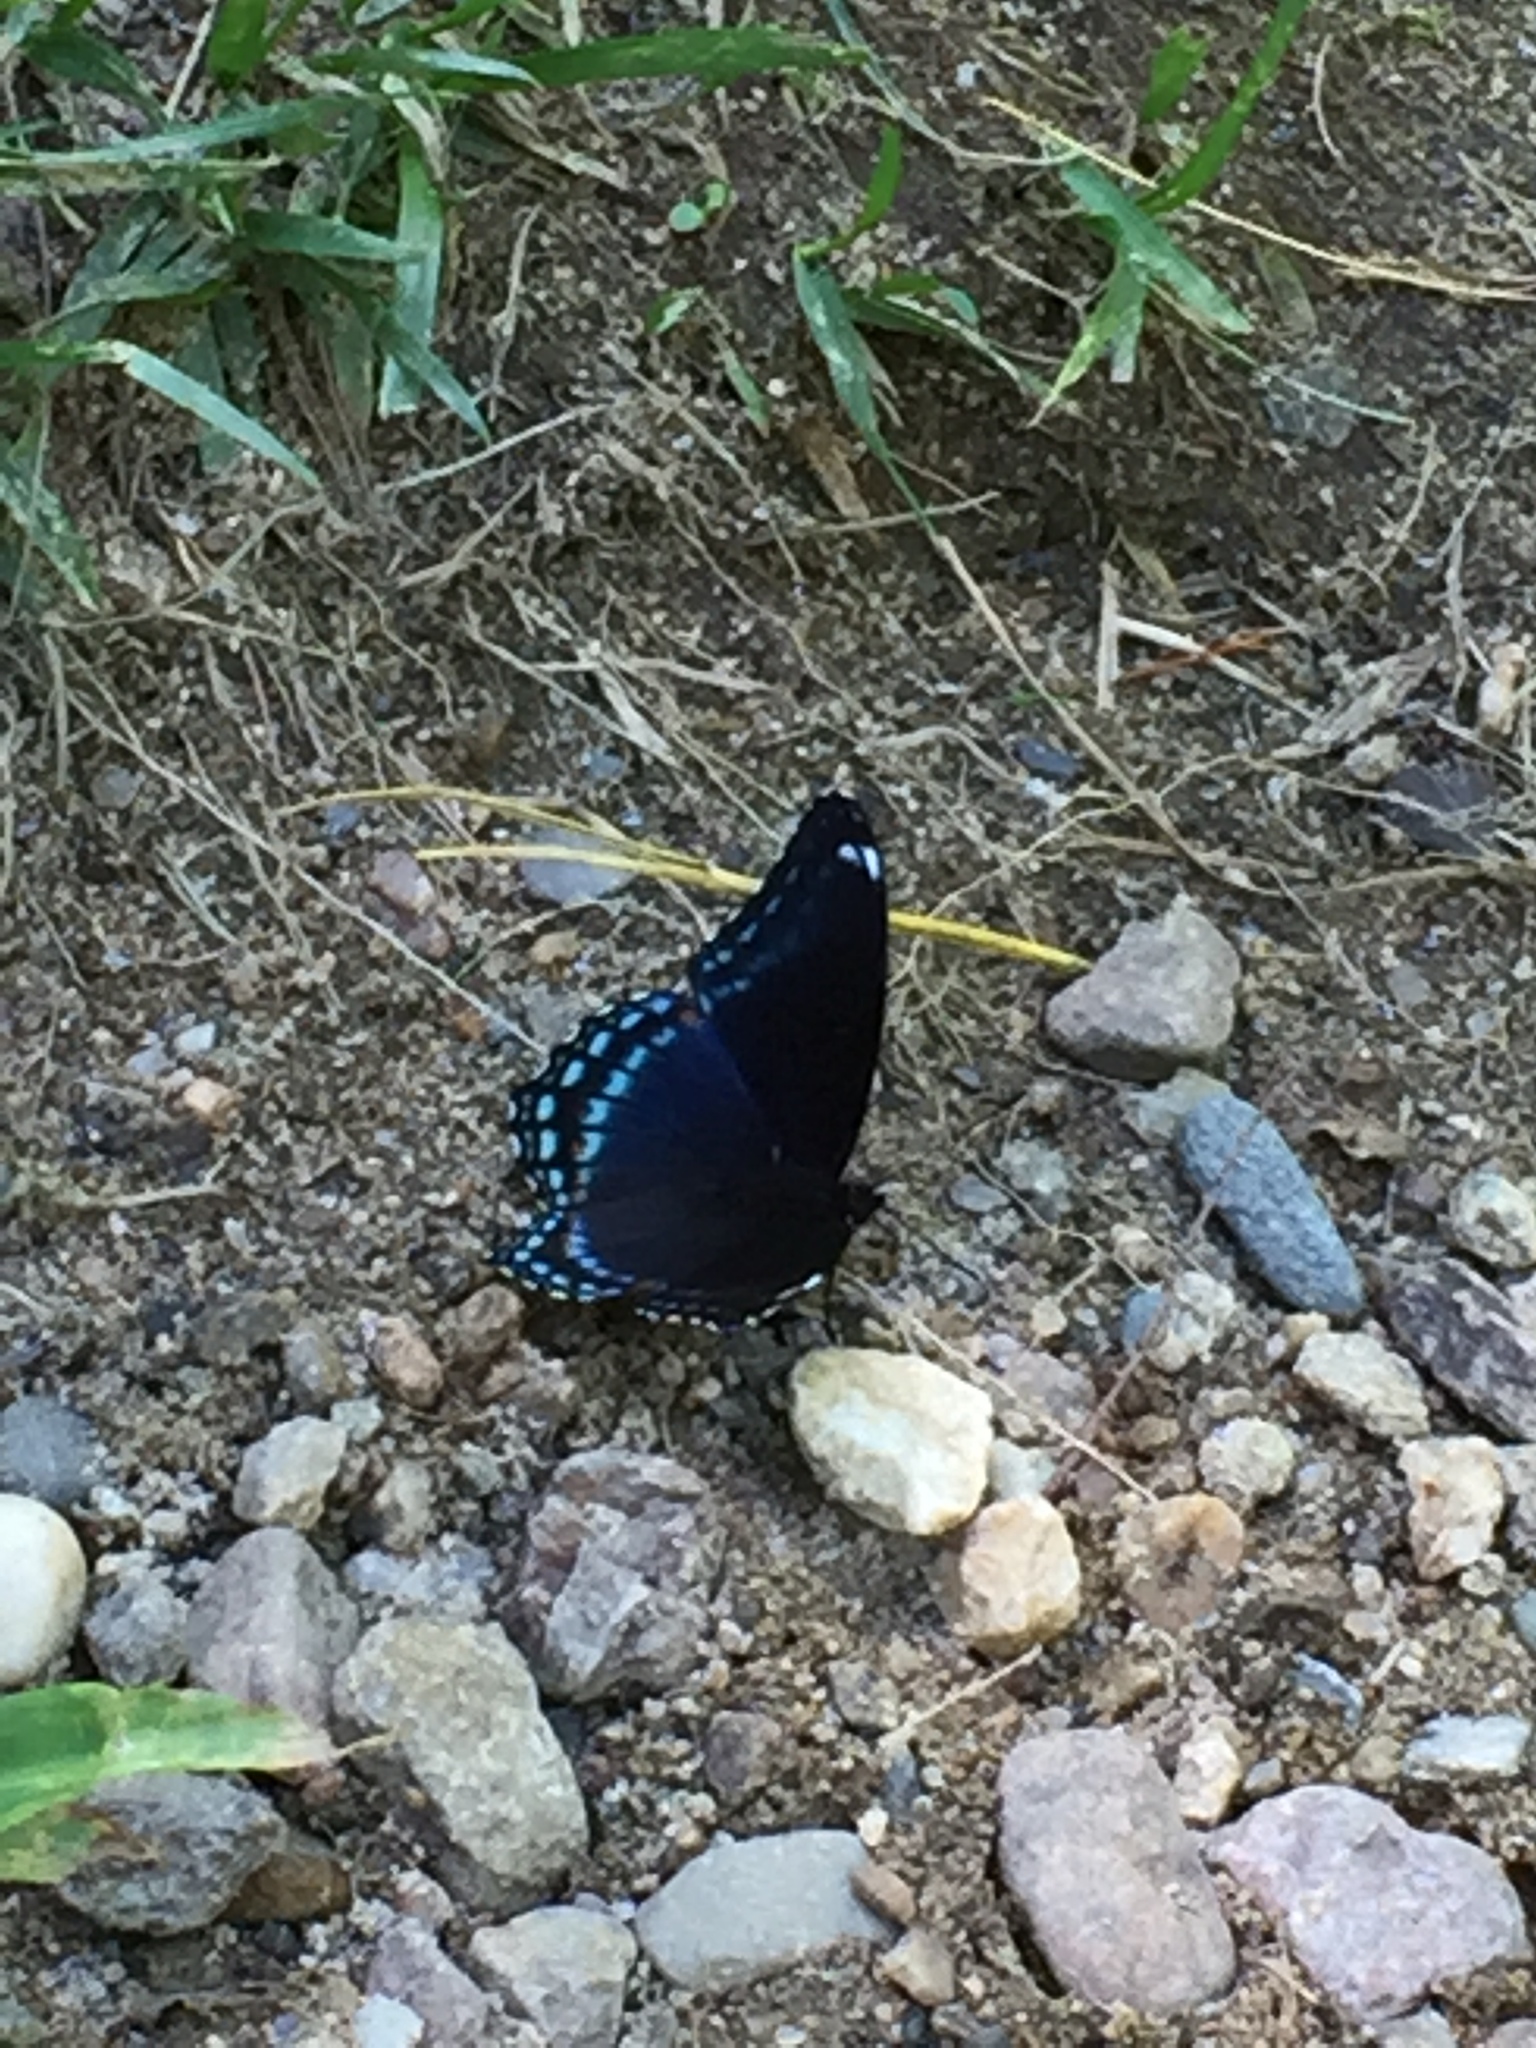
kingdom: Animalia
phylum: Arthropoda
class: Insecta
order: Lepidoptera
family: Nymphalidae
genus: Limenitis
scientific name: Limenitis astyanax
